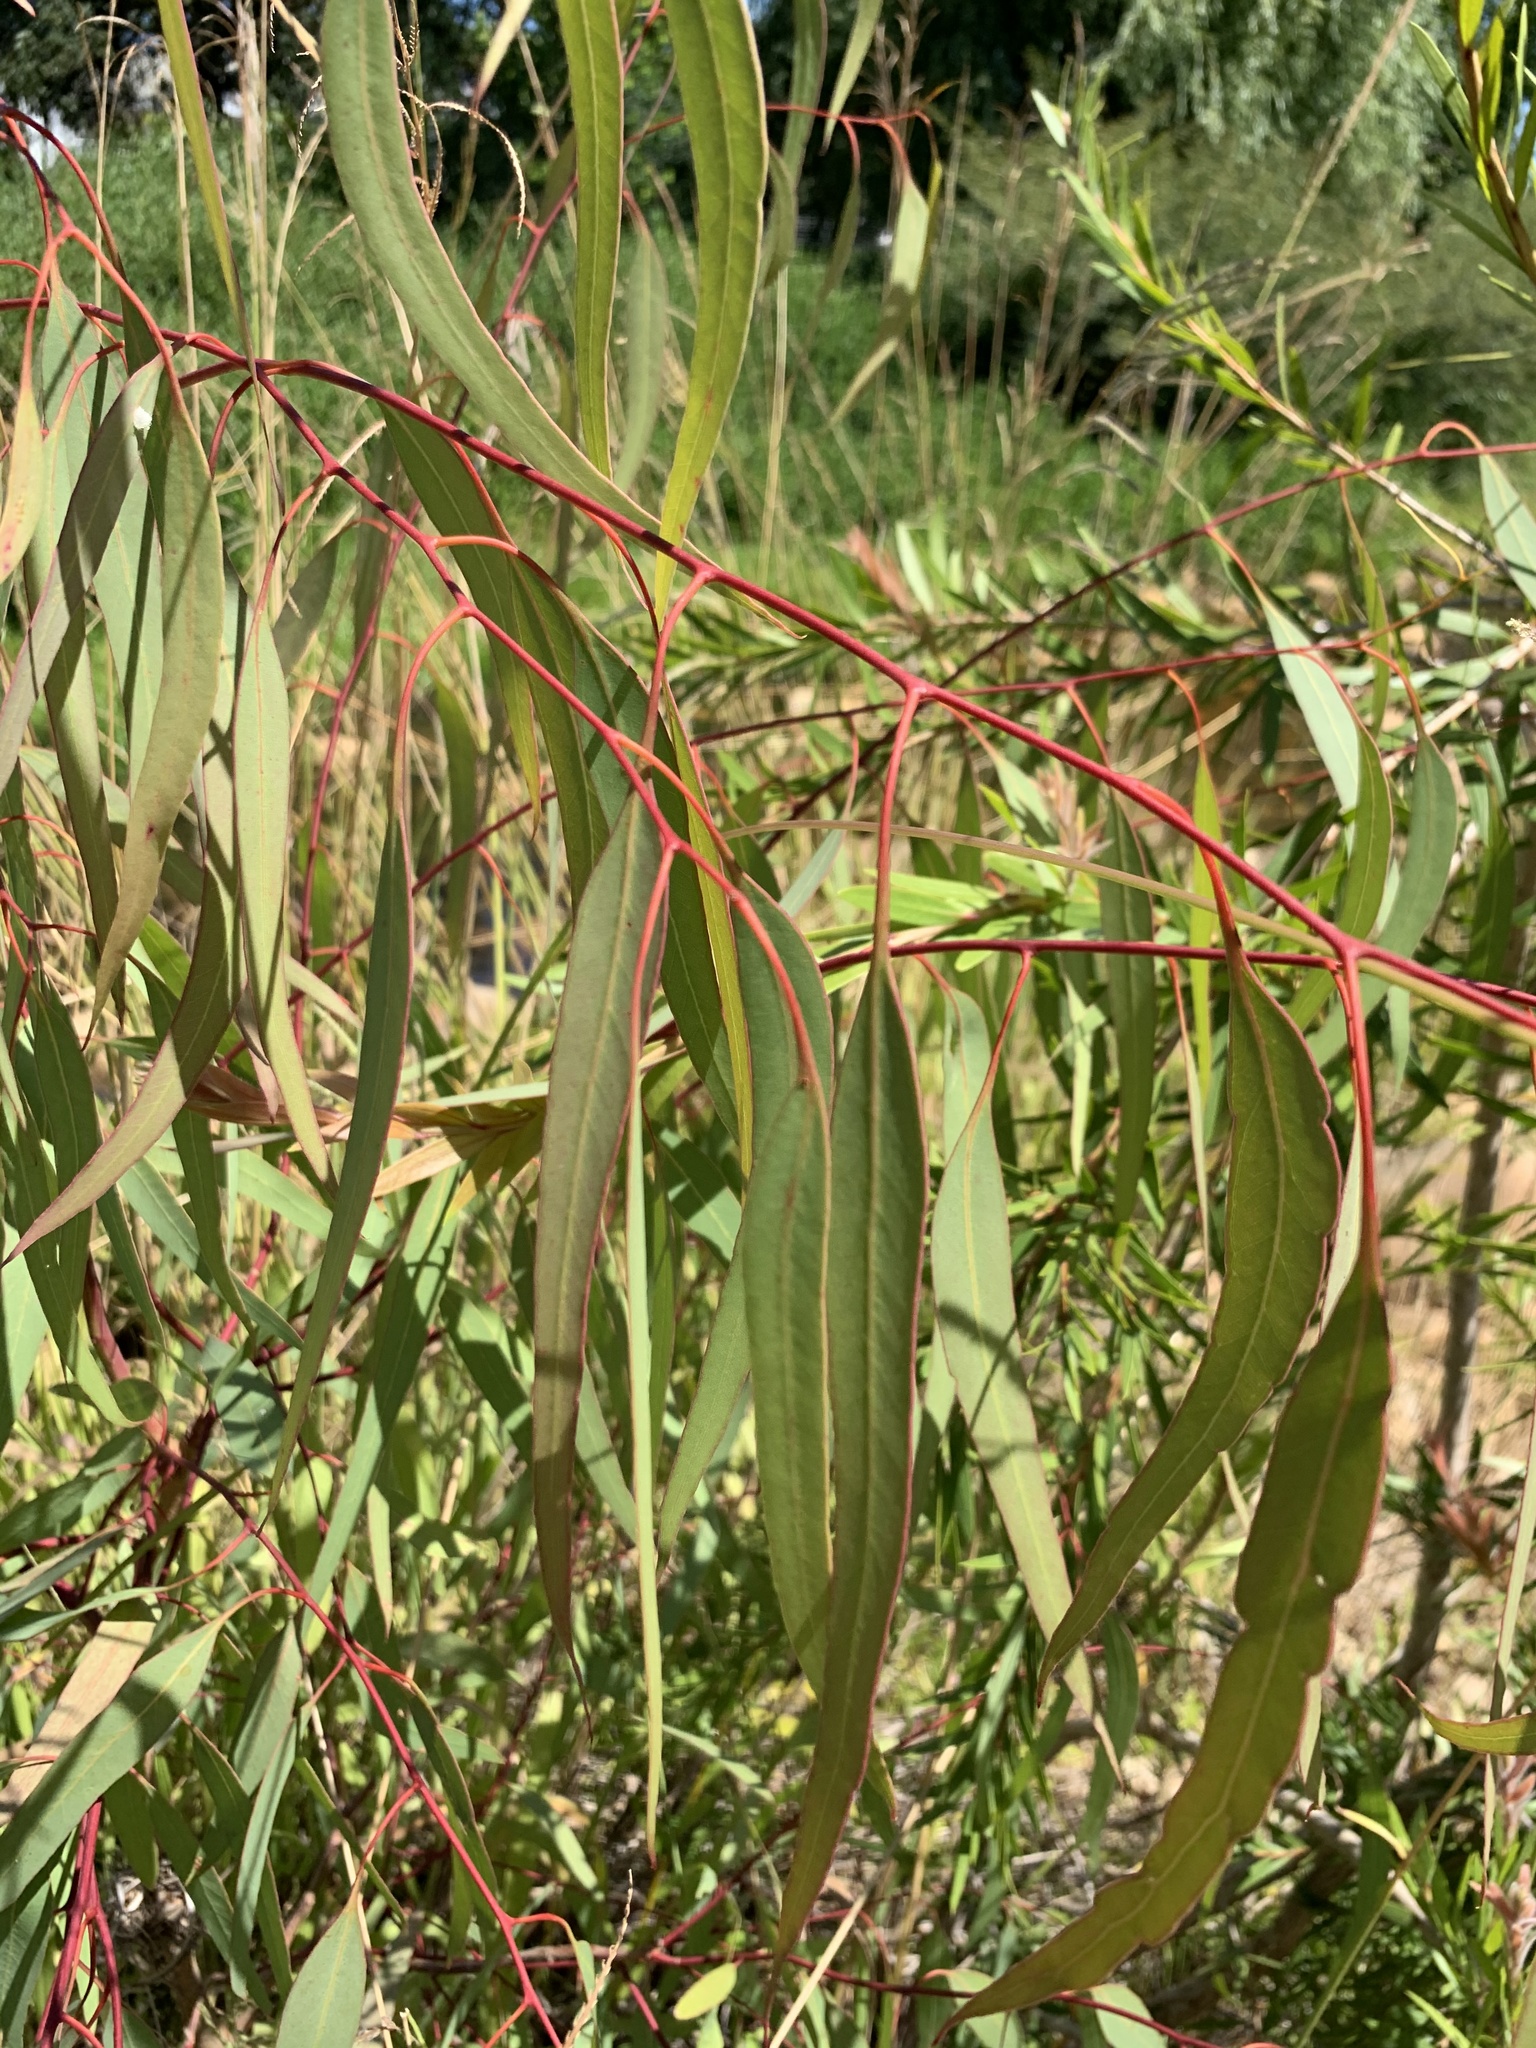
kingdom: Plantae
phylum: Tracheophyta
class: Magnoliopsida
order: Myrtales
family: Myrtaceae
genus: Eucalyptus
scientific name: Eucalyptus camaldulensis
